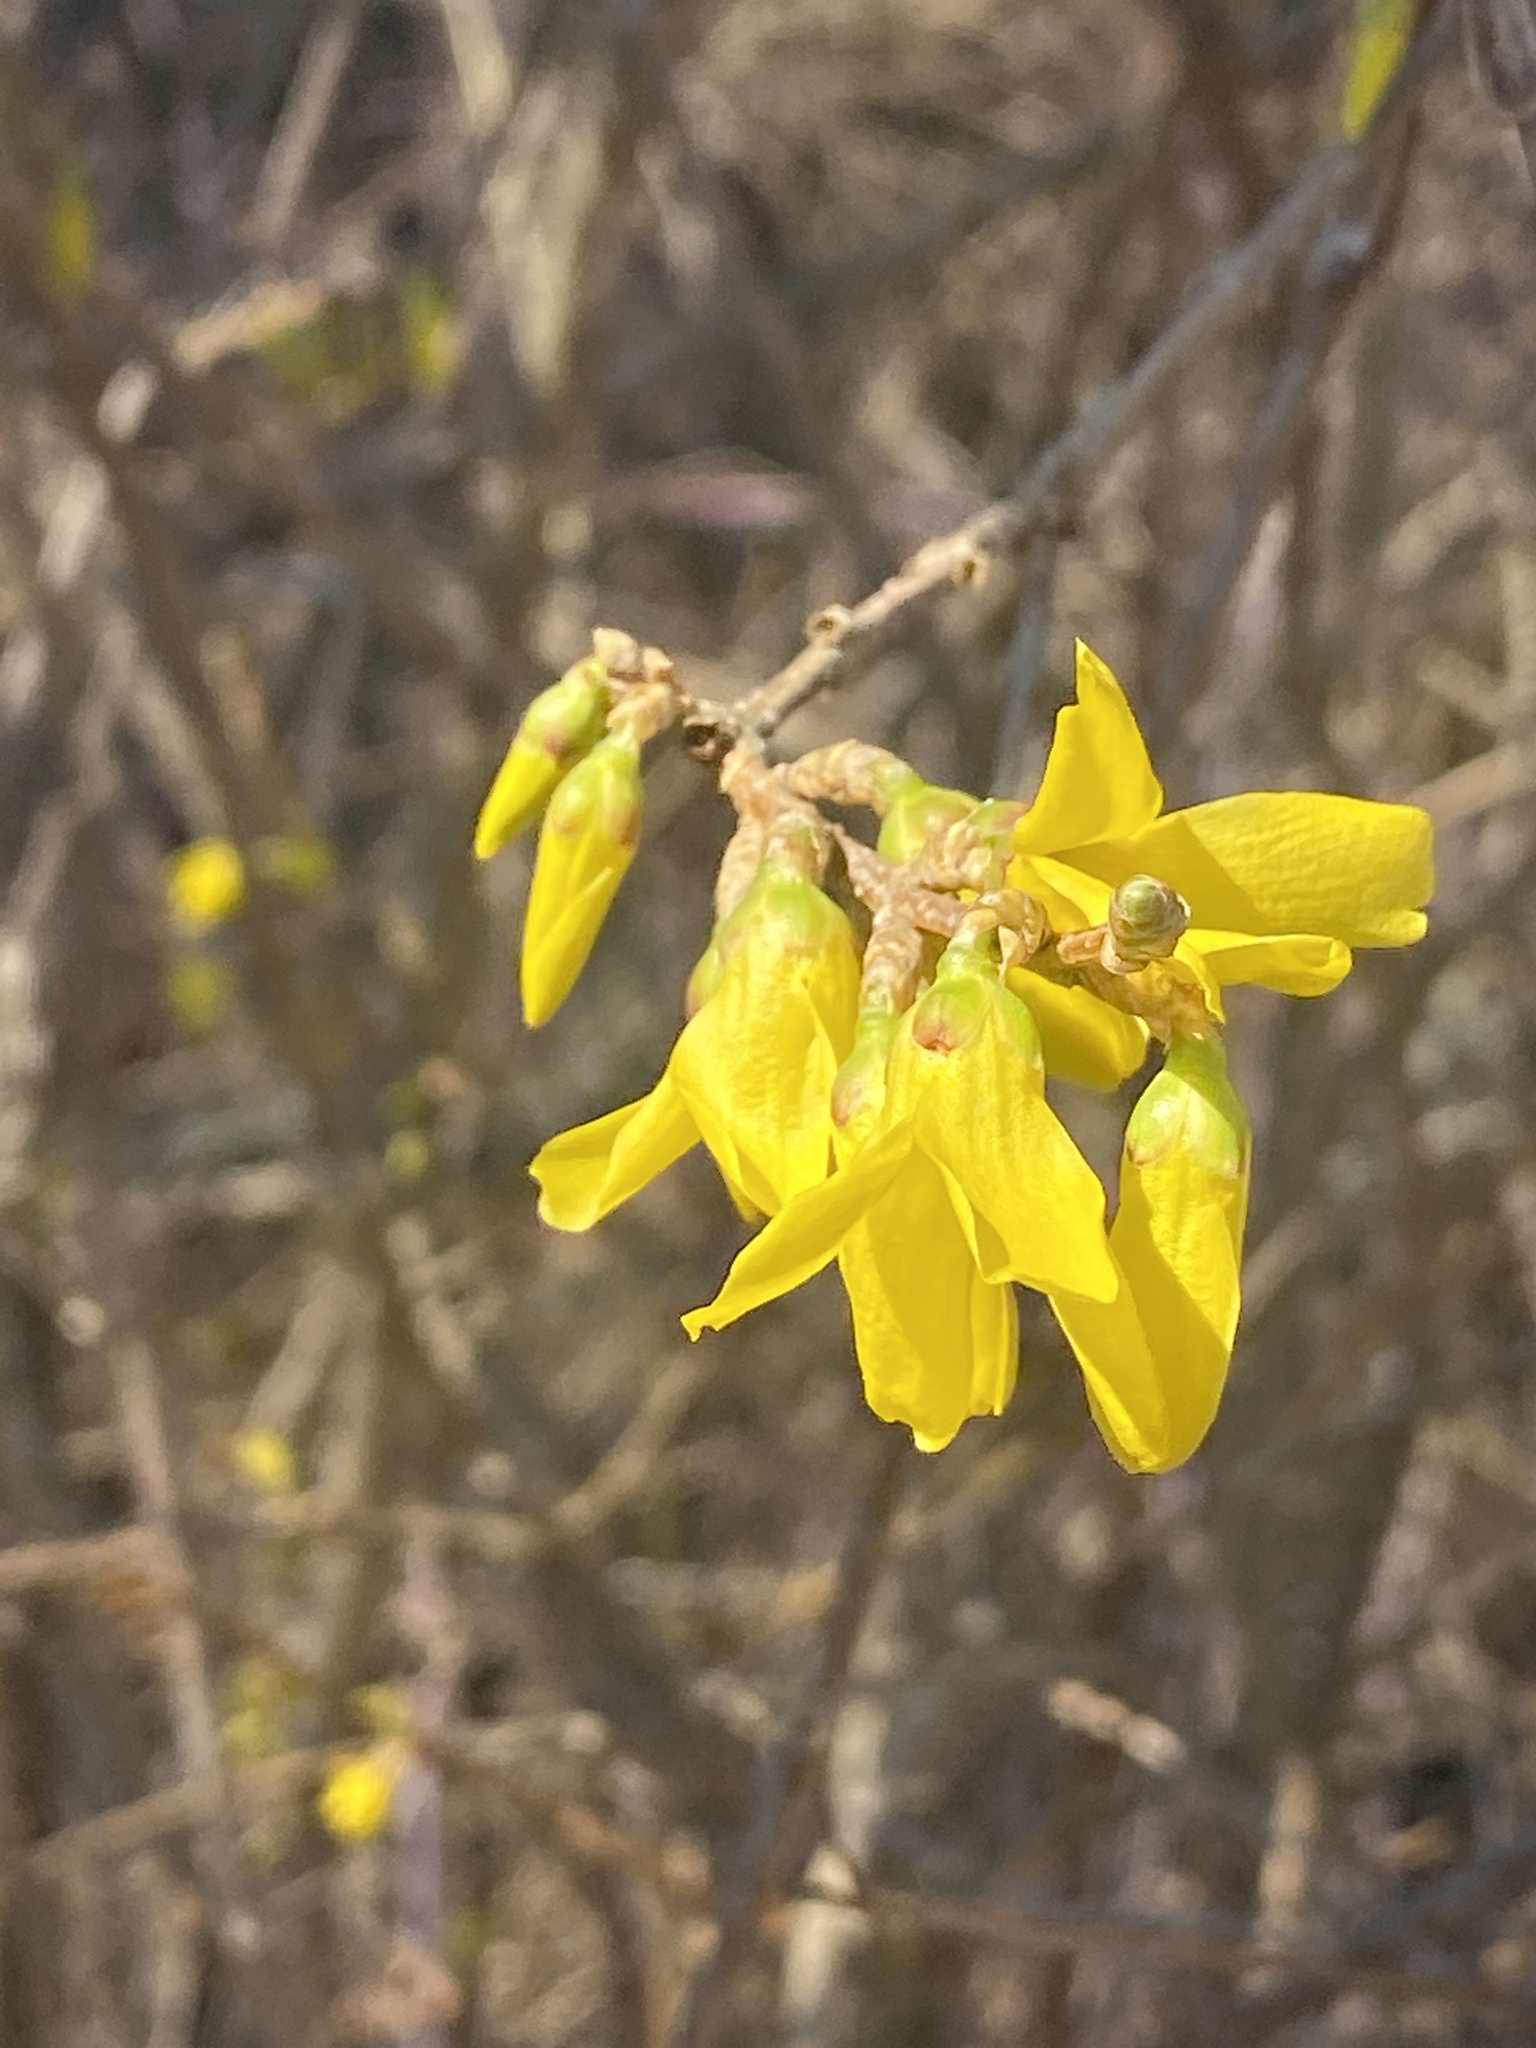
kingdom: Plantae
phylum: Tracheophyta
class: Magnoliopsida
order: Lamiales
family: Oleaceae
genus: Forsythia
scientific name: Forsythia
